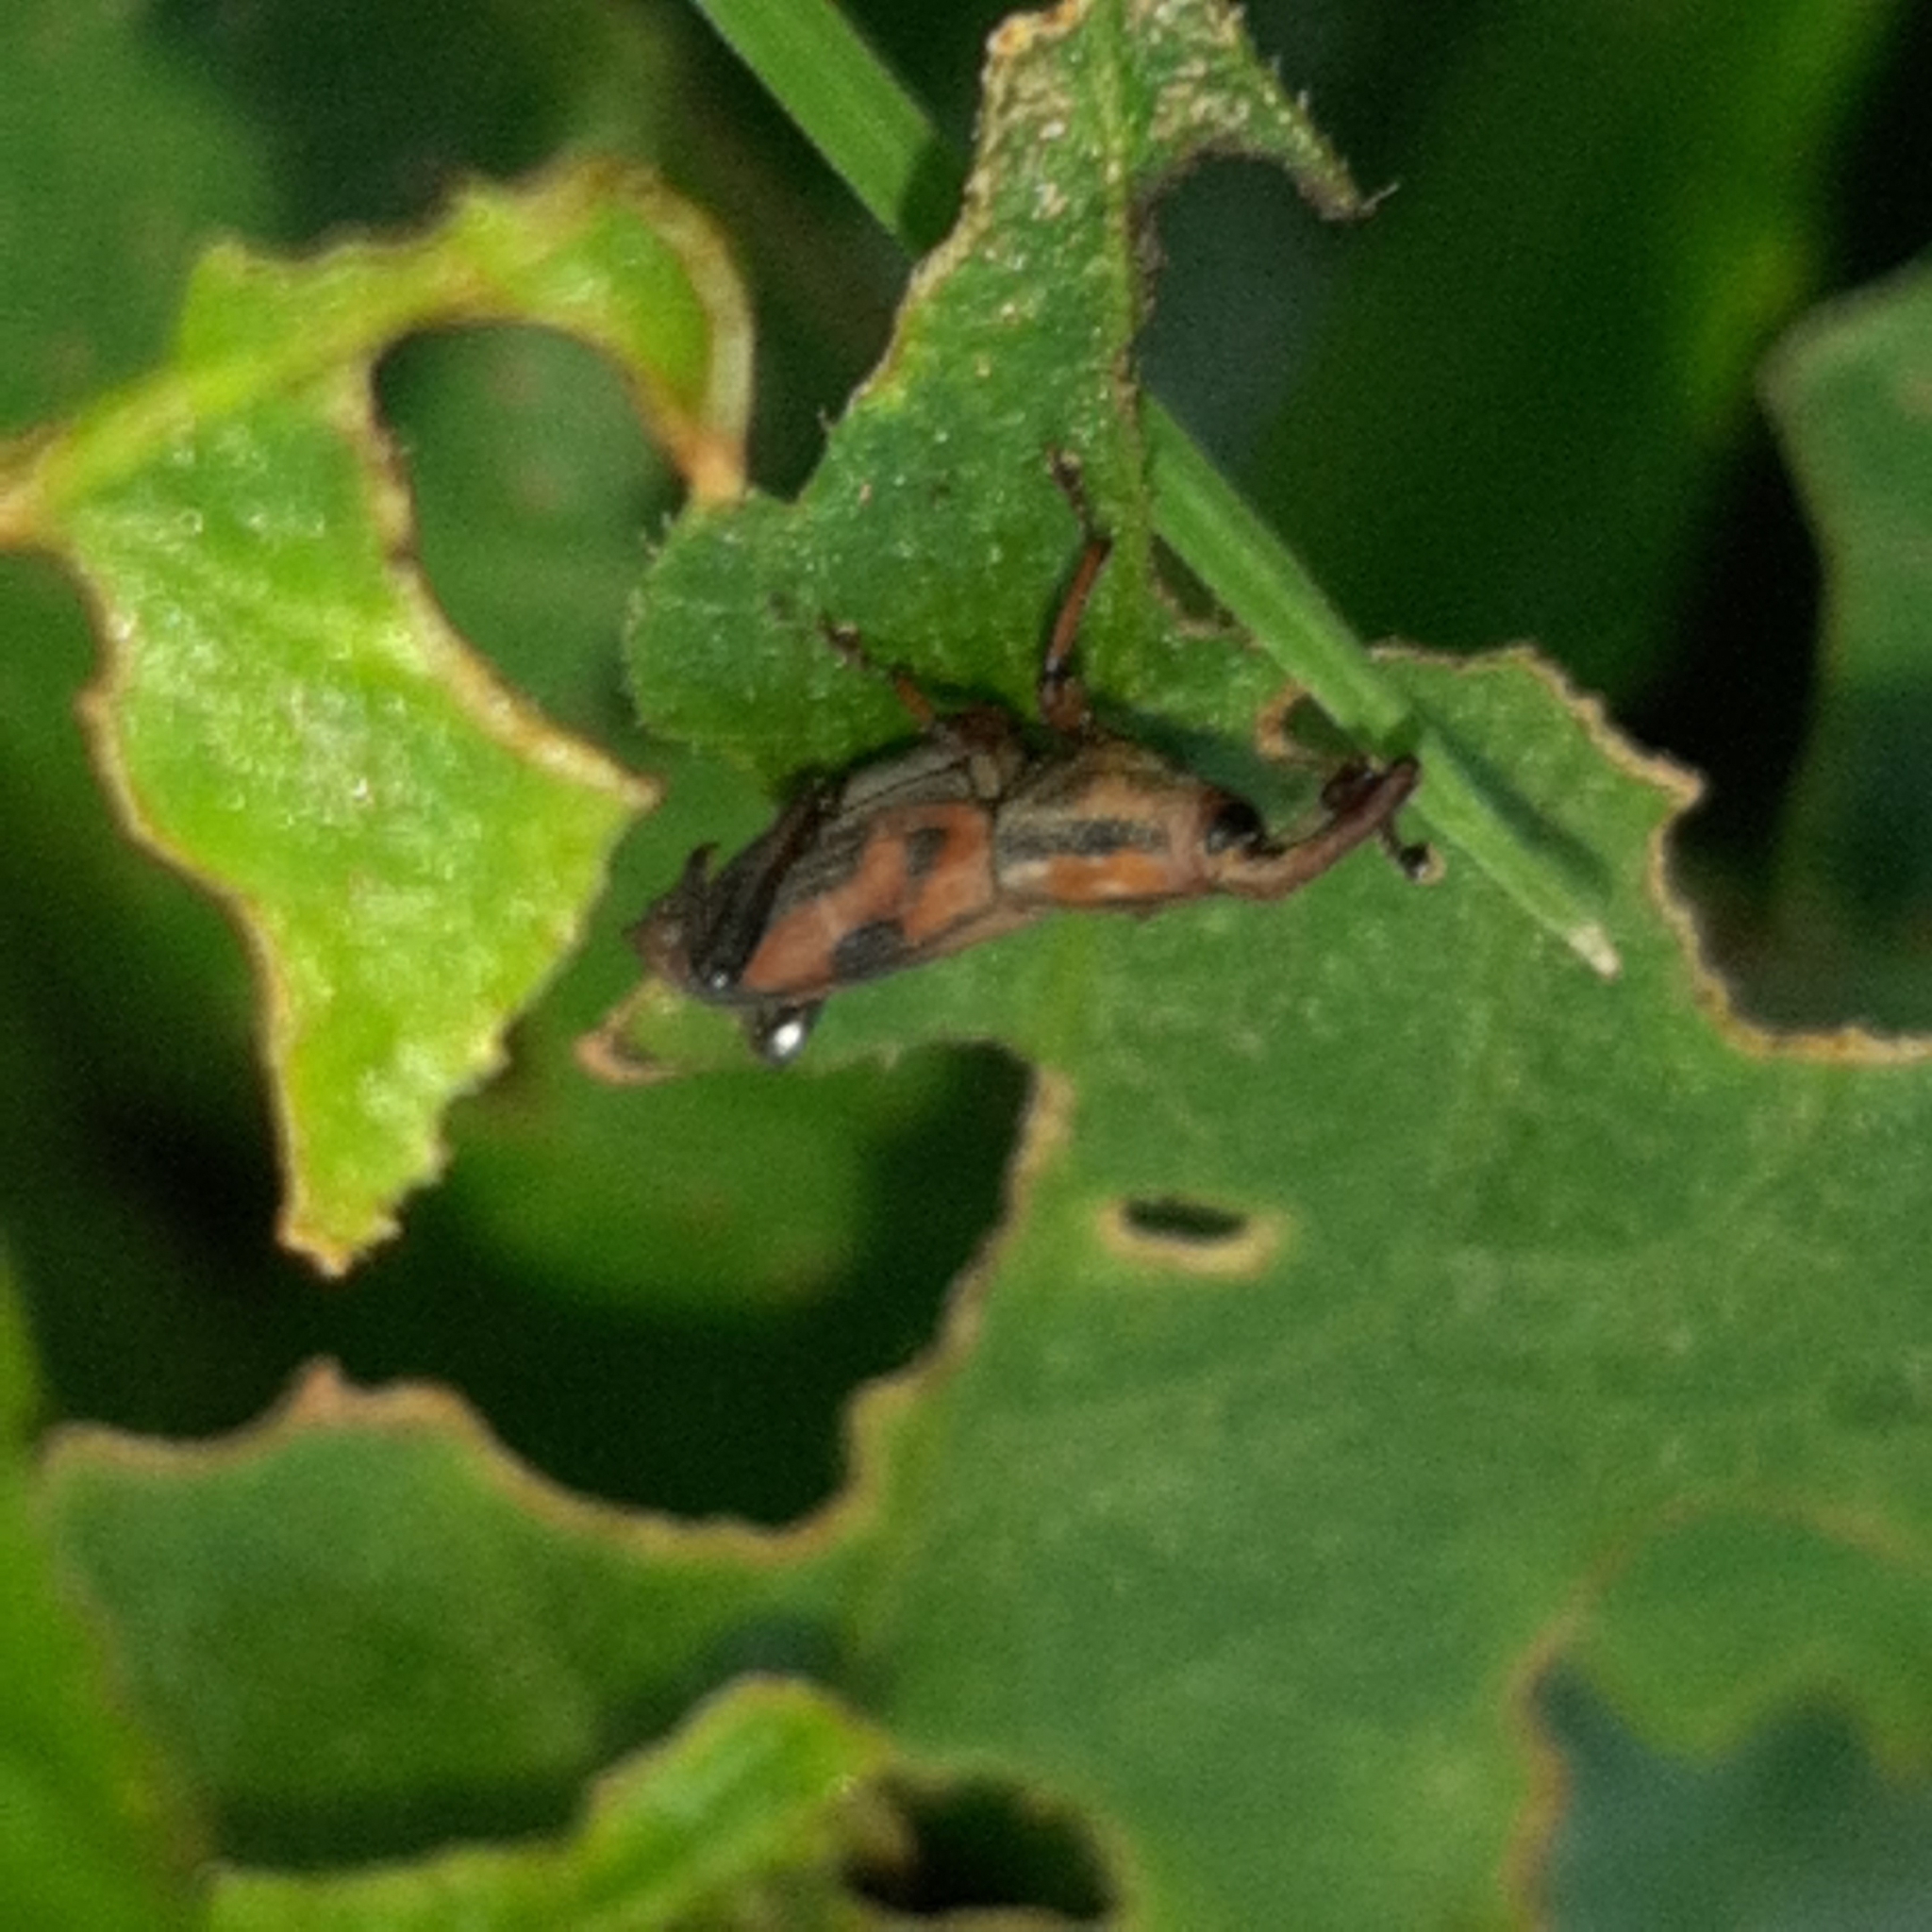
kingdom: Animalia
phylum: Arthropoda
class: Insecta
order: Coleoptera
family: Dryophthoridae
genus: Rhodobaenus
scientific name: Rhodobaenus ypsilon
